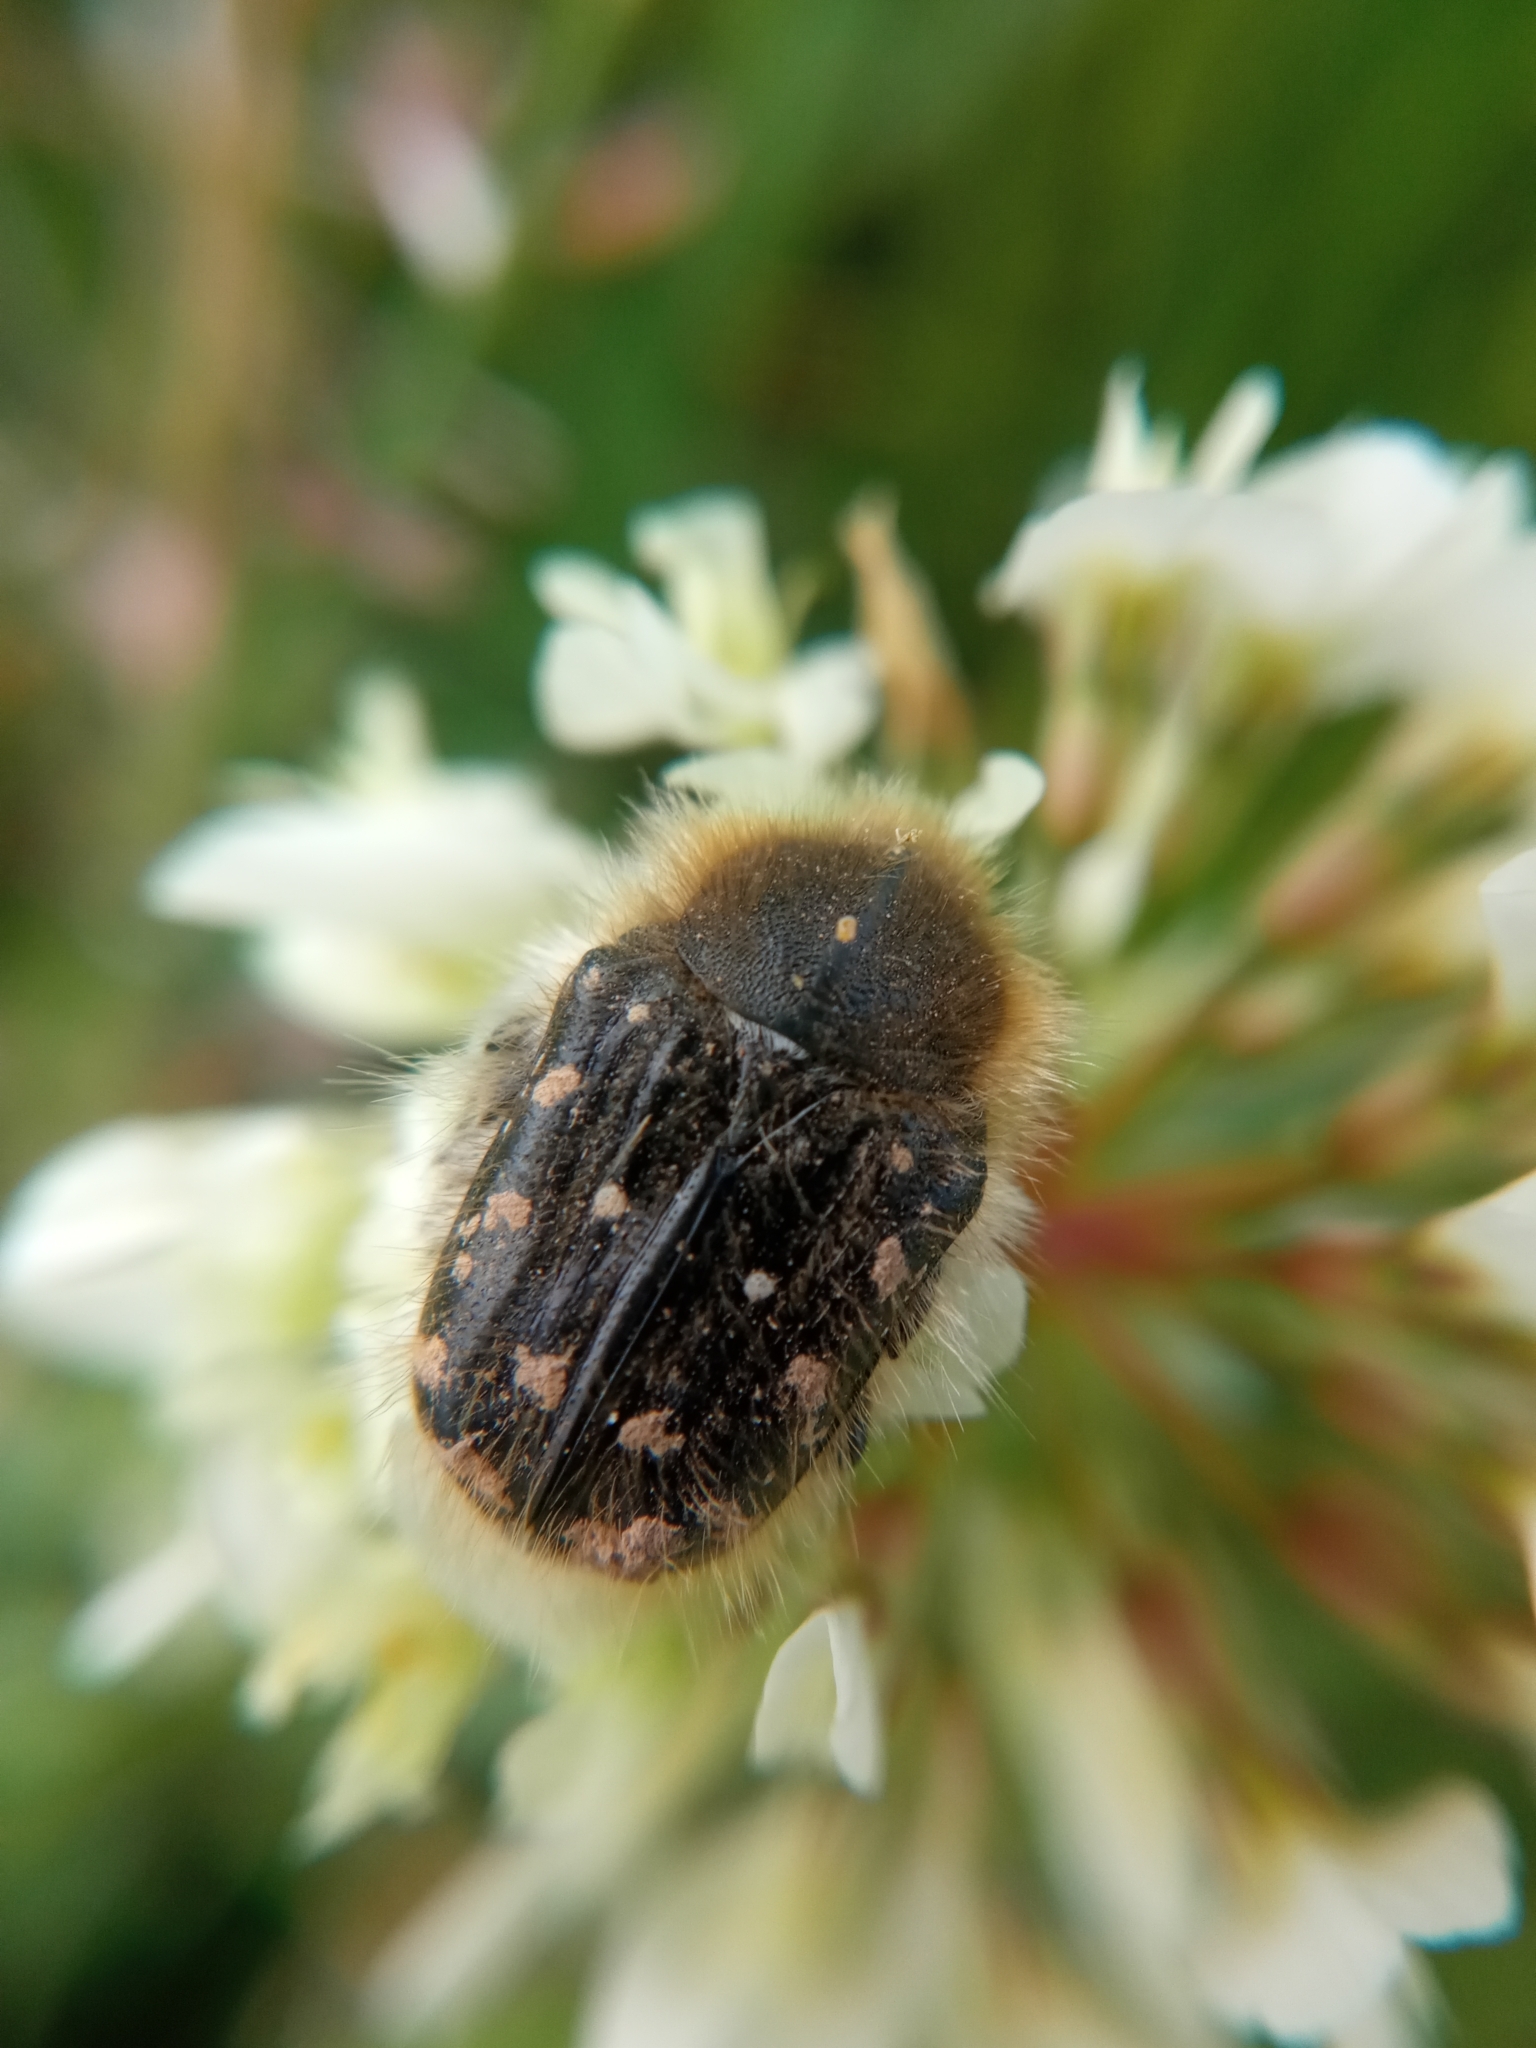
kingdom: Animalia
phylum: Arthropoda
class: Insecta
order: Coleoptera
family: Scarabaeidae
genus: Tropinota
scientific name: Tropinota hirta
